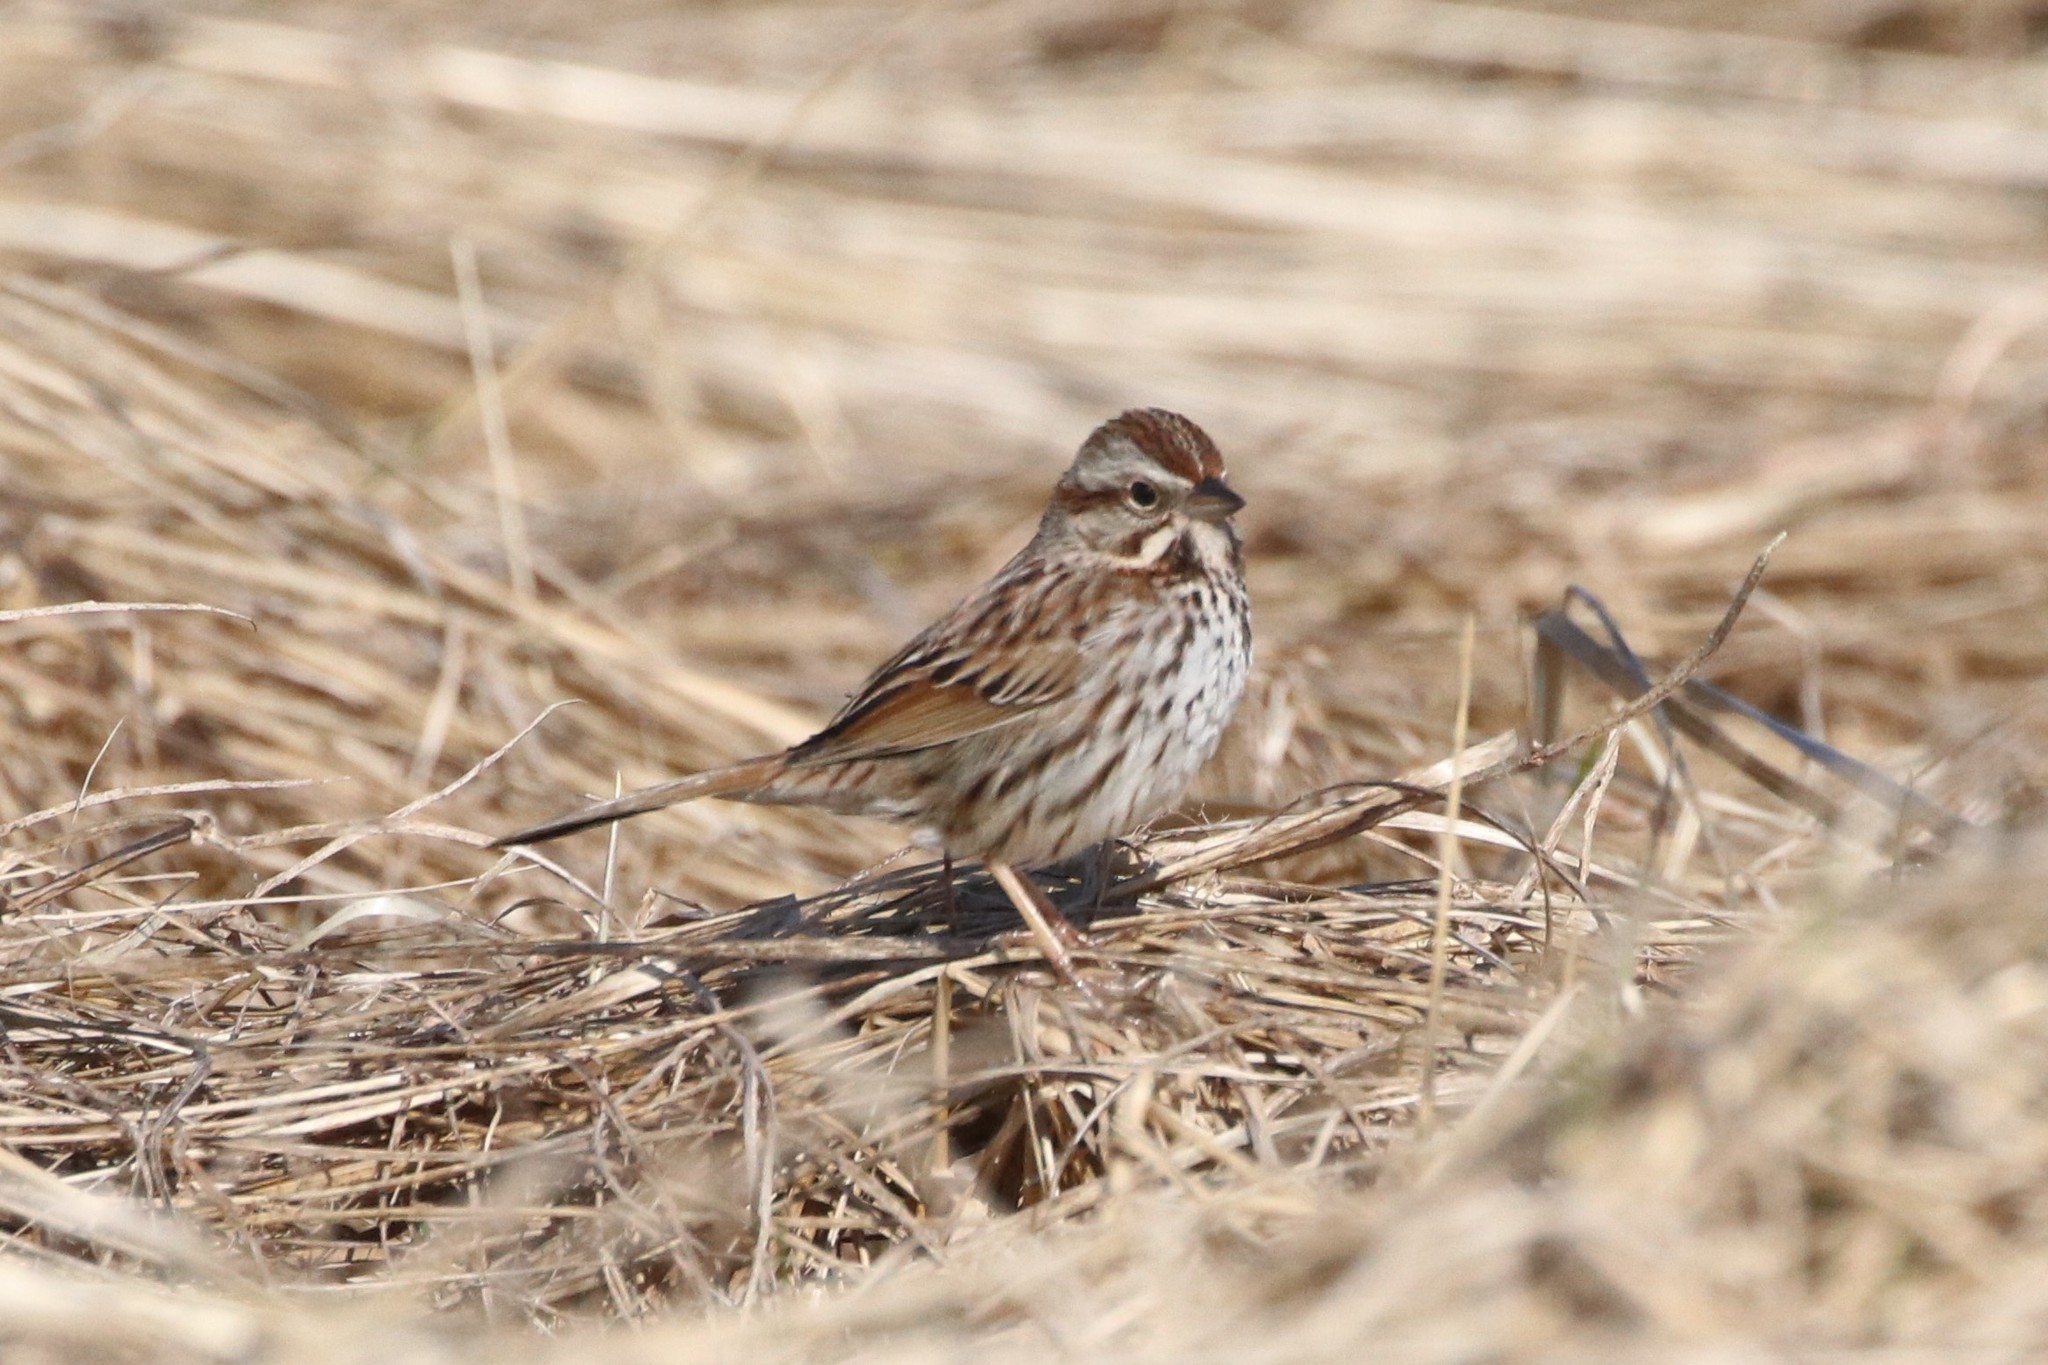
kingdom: Animalia
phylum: Chordata
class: Aves
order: Passeriformes
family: Passerellidae
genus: Melospiza
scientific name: Melospiza melodia
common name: Song sparrow
